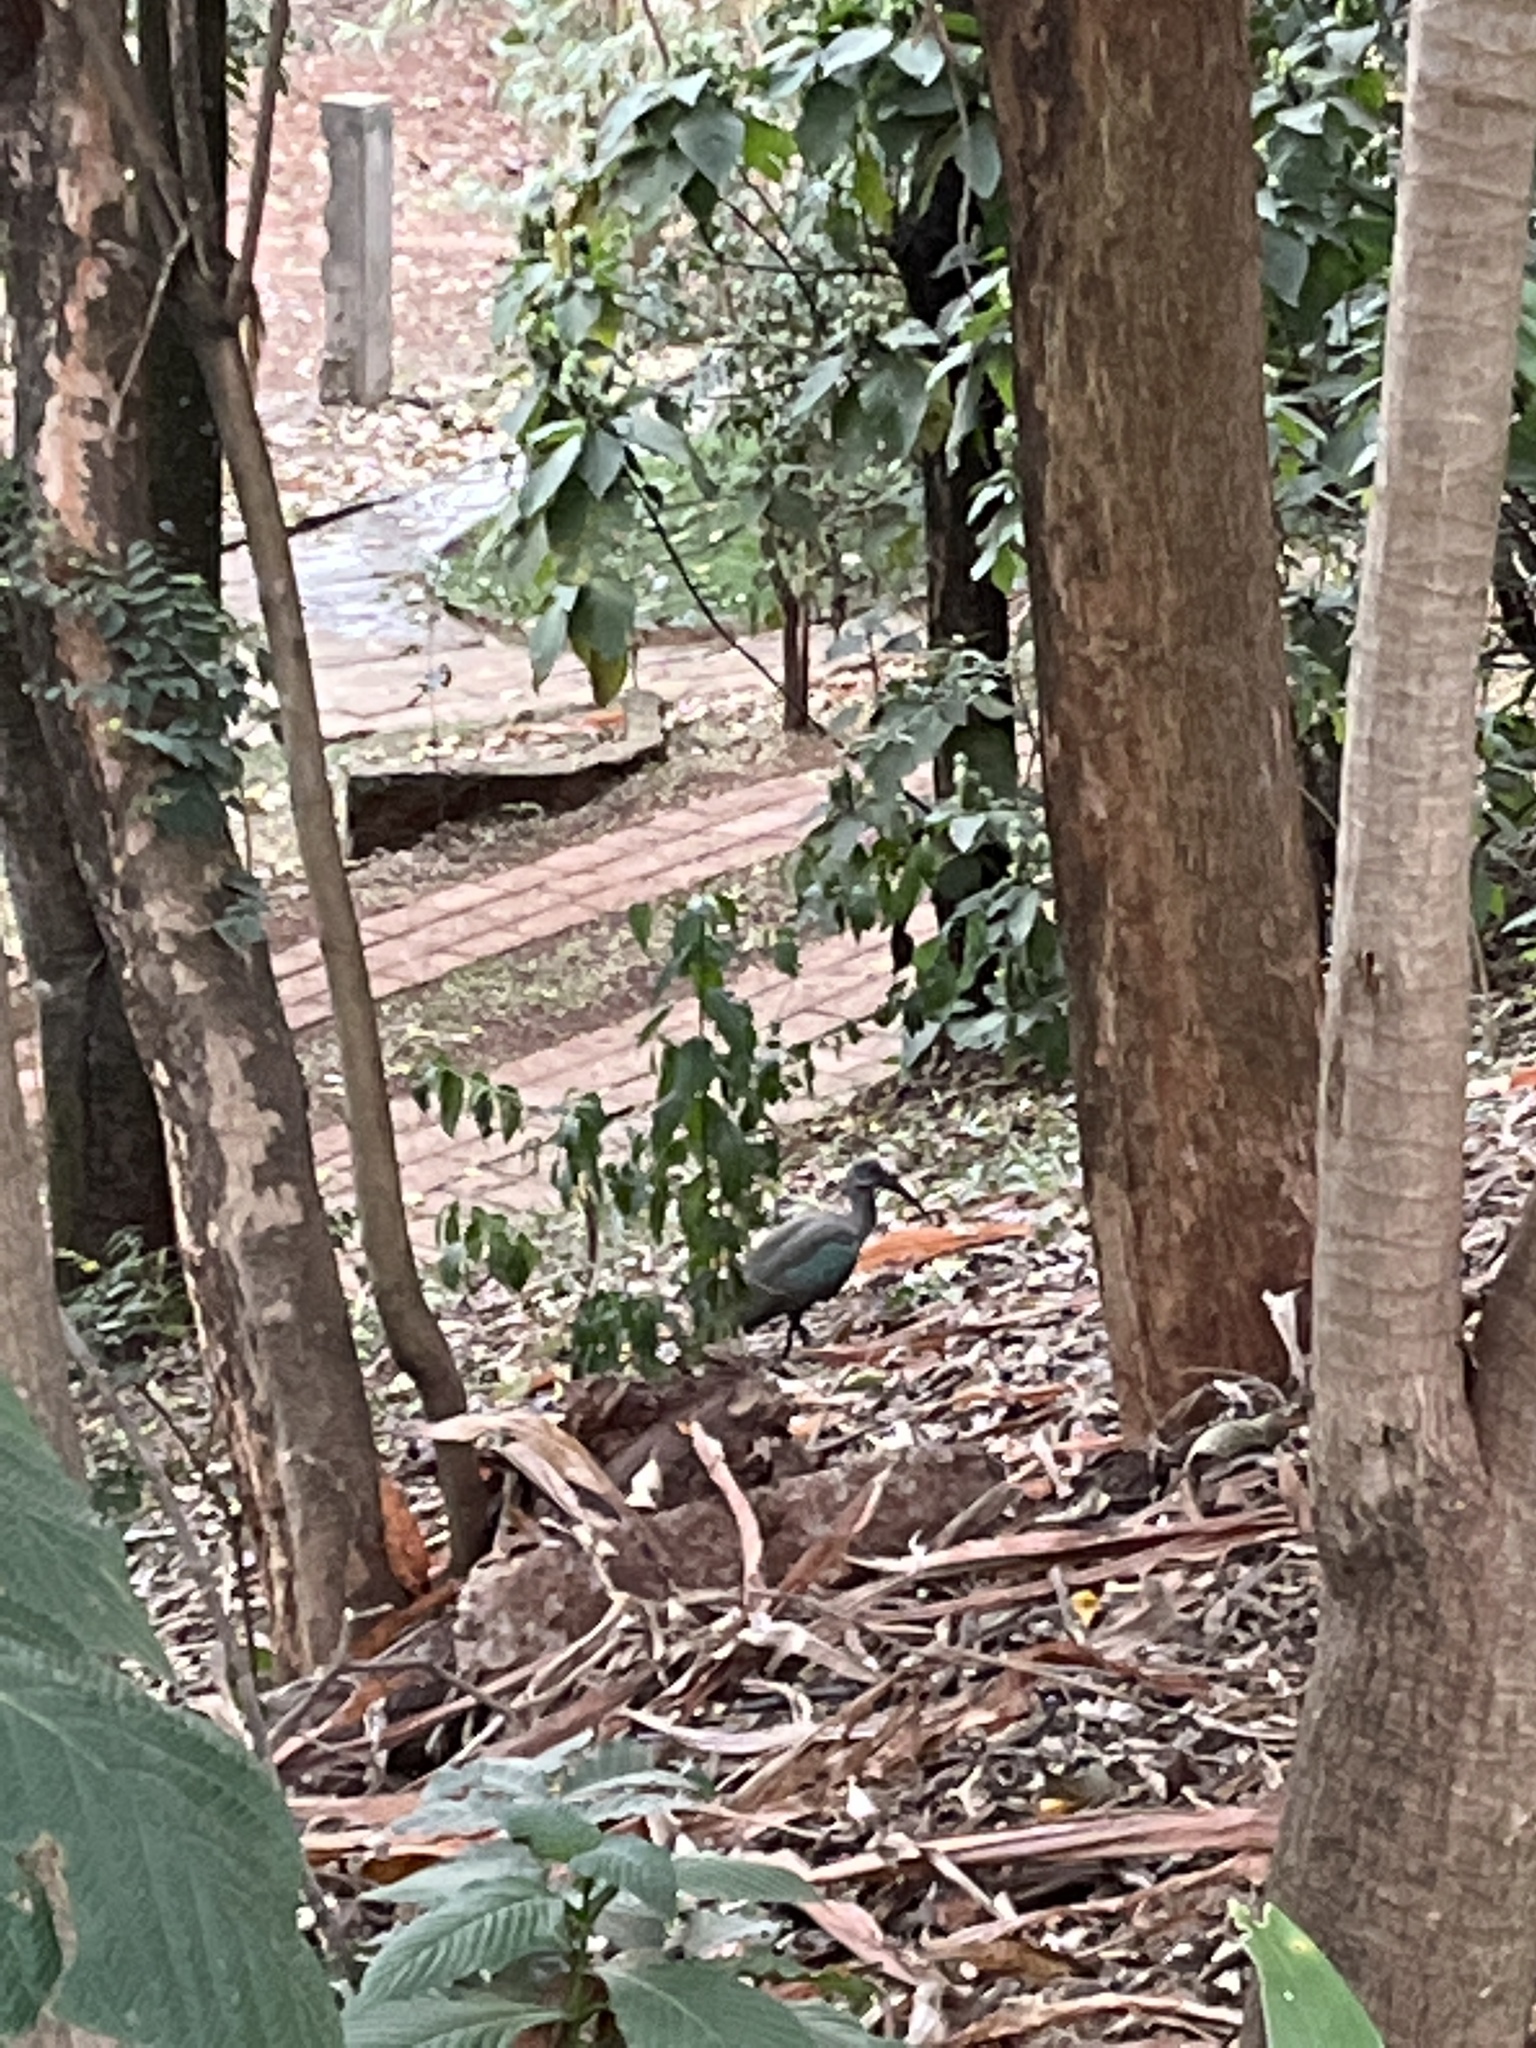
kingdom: Animalia
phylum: Chordata
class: Aves
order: Pelecaniformes
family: Threskiornithidae
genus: Bostrychia
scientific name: Bostrychia hagedash
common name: Hadada ibis
